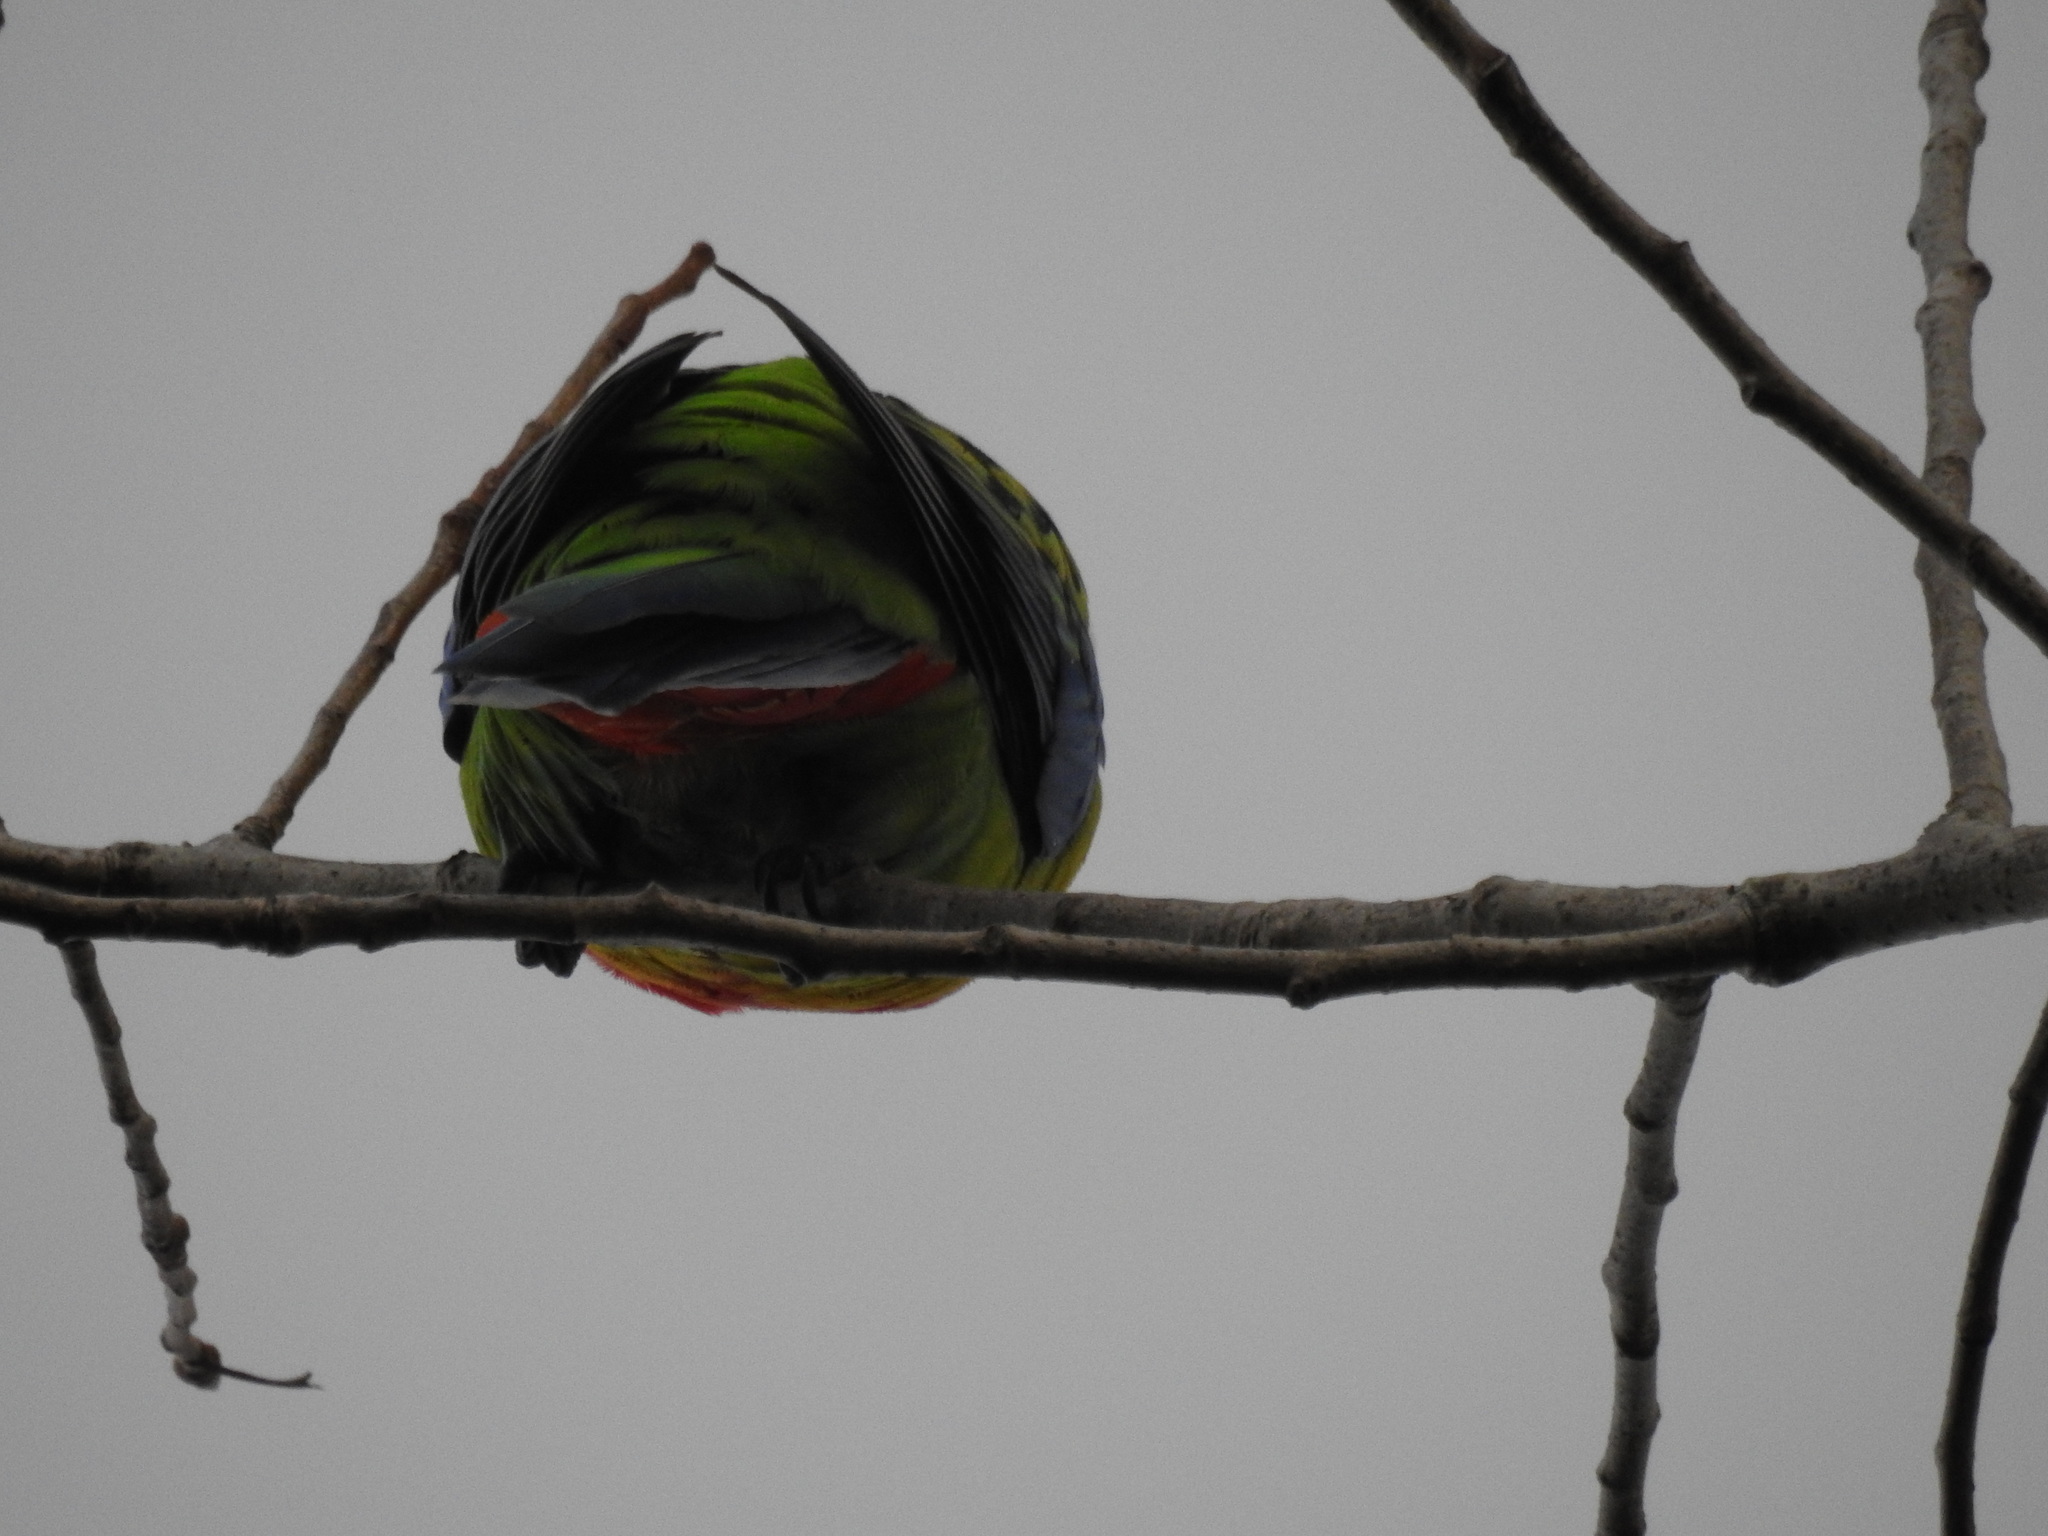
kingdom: Animalia
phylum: Chordata
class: Aves
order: Psittaciformes
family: Psittacidae
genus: Platycercus
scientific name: Platycercus eximius
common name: Eastern rosella
